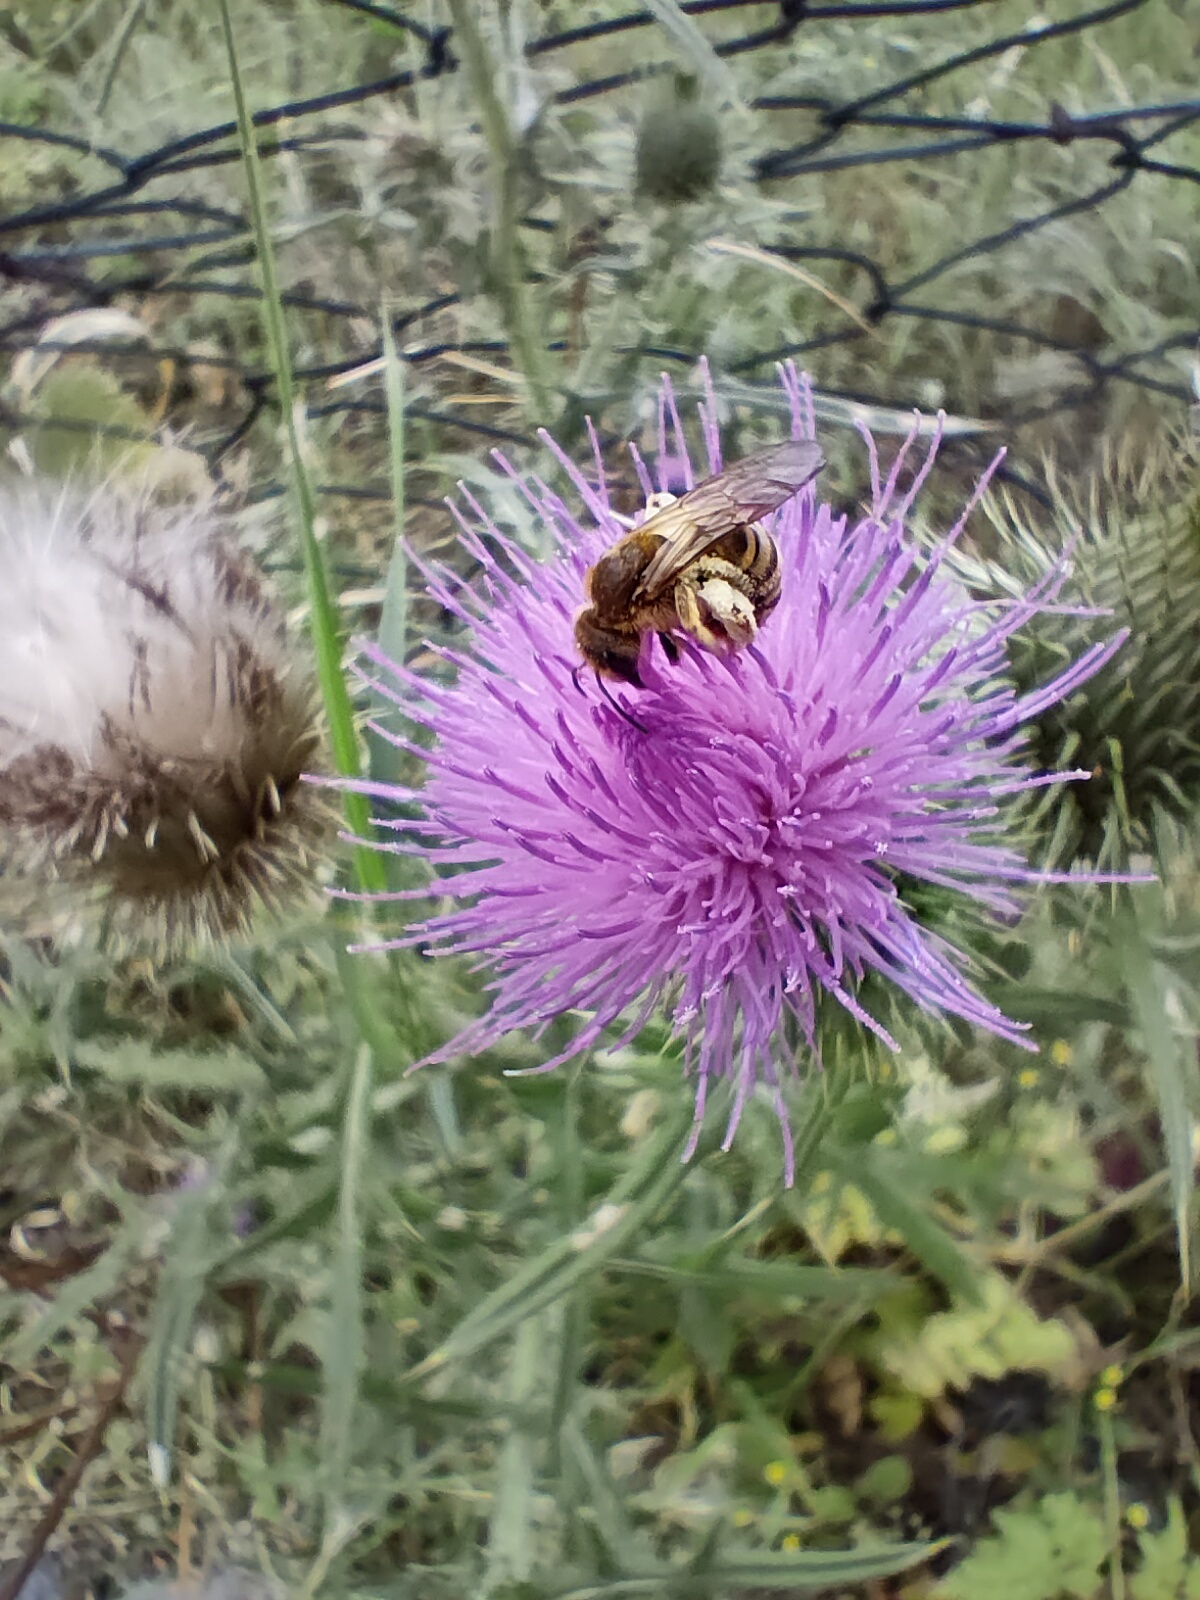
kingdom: Animalia
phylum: Arthropoda
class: Insecta
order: Hymenoptera
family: Halictidae
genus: Halictus
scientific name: Halictus scabiosae
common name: Great banded furrow bee
